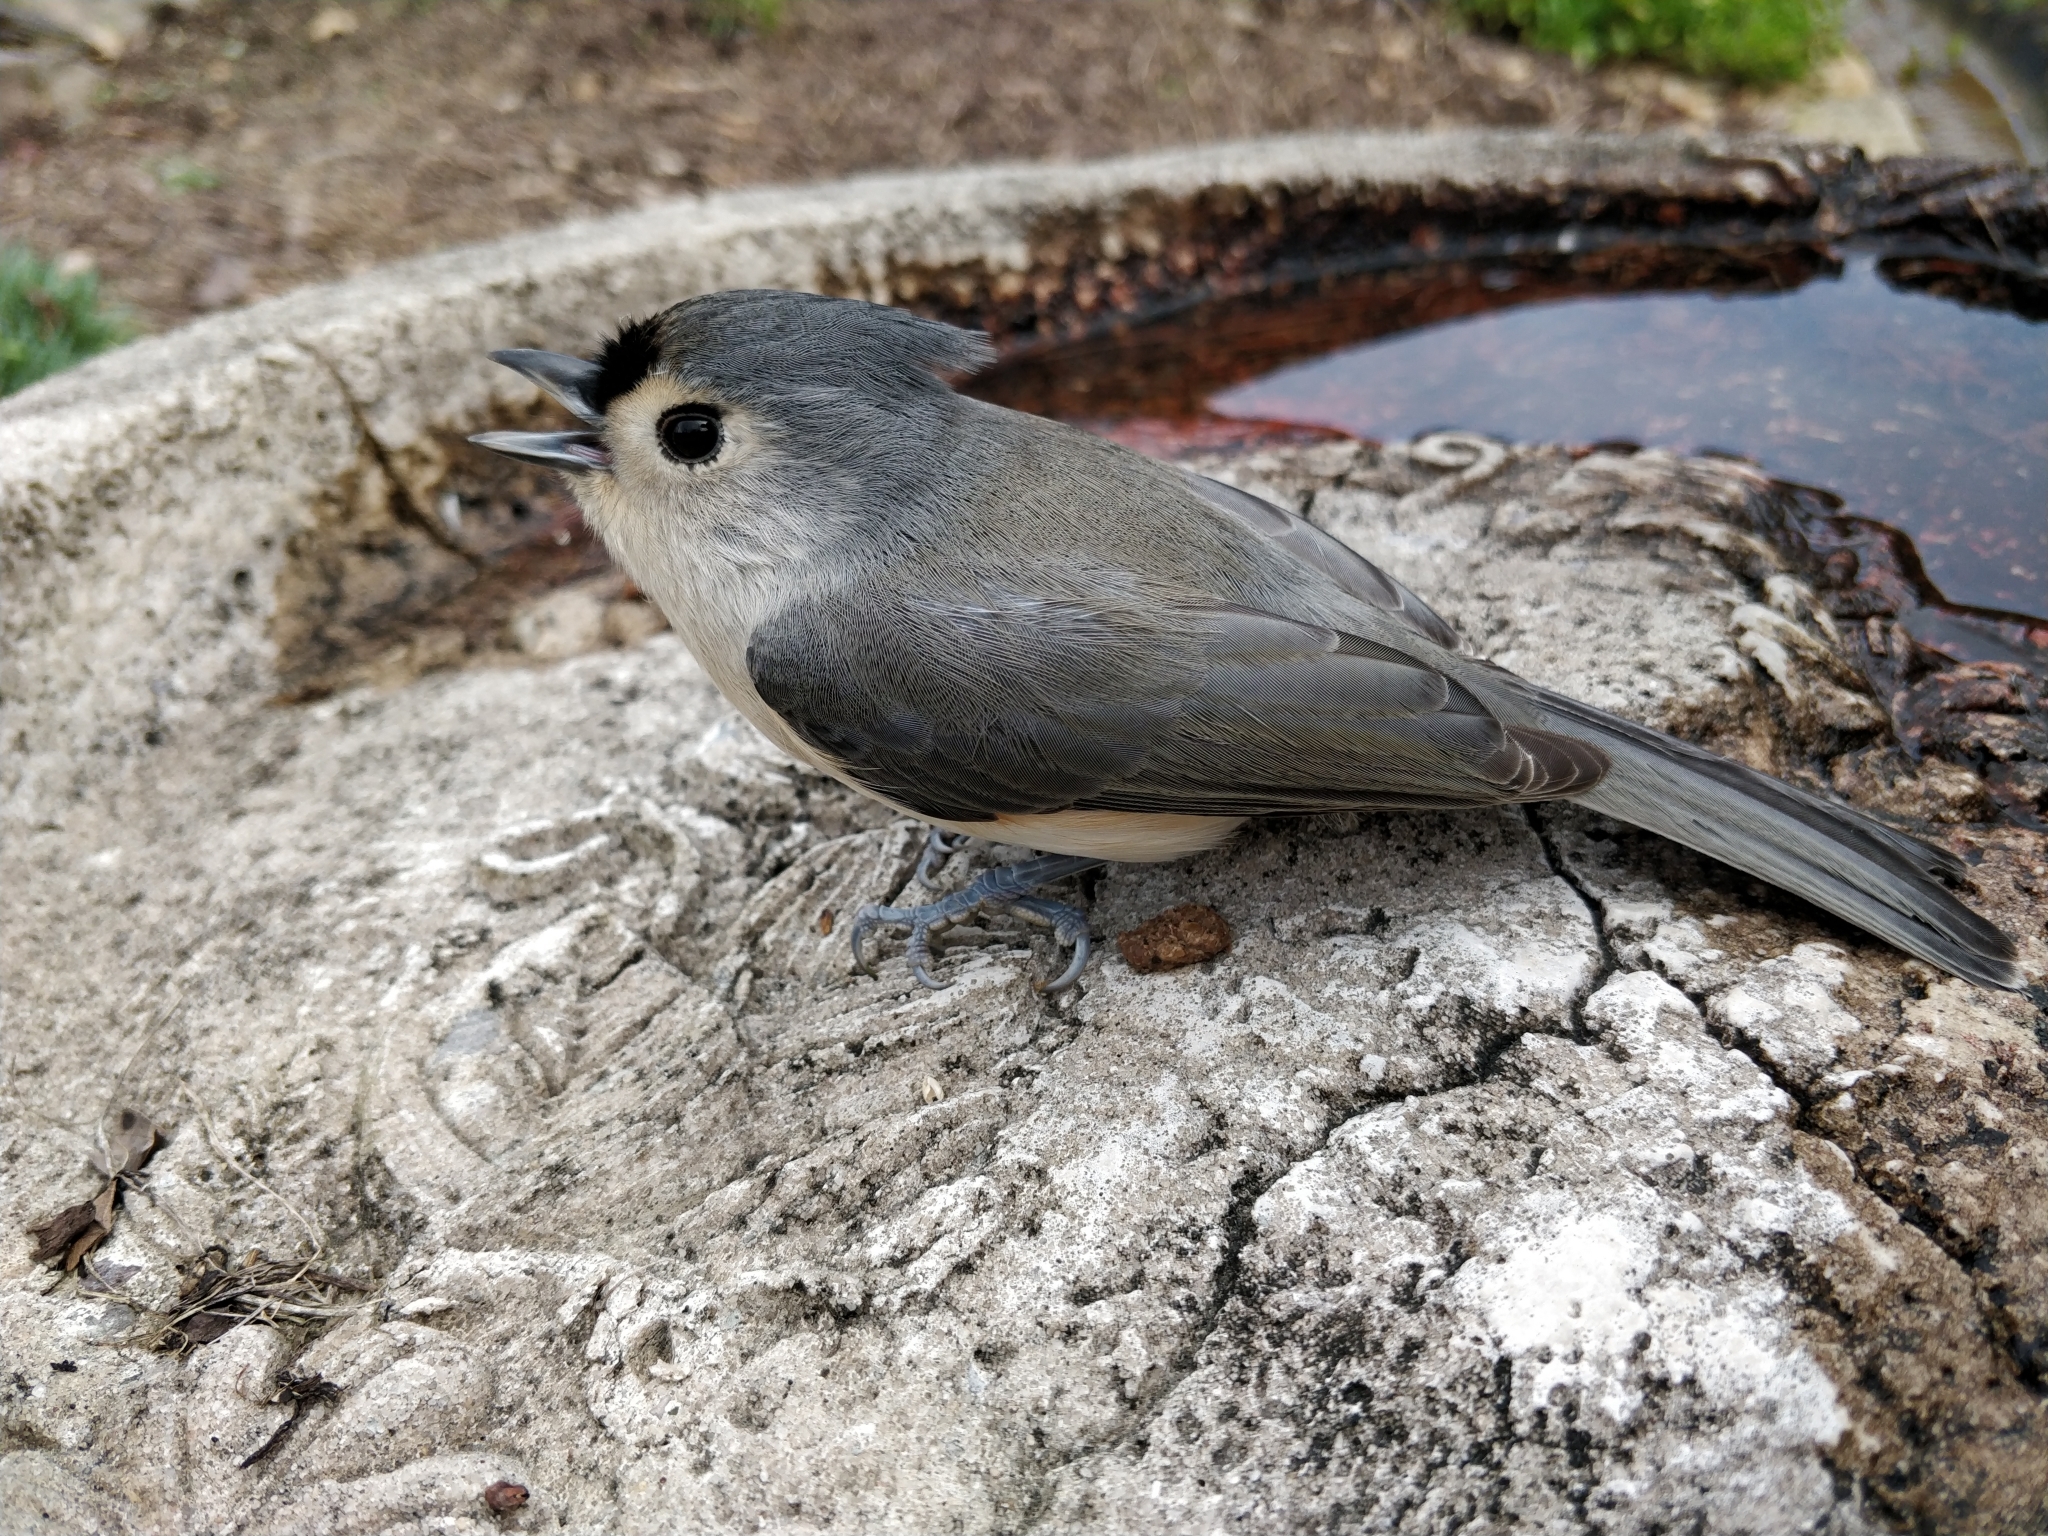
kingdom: Animalia
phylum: Chordata
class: Aves
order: Passeriformes
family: Paridae
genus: Baeolophus
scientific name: Baeolophus bicolor
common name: Tufted titmouse
